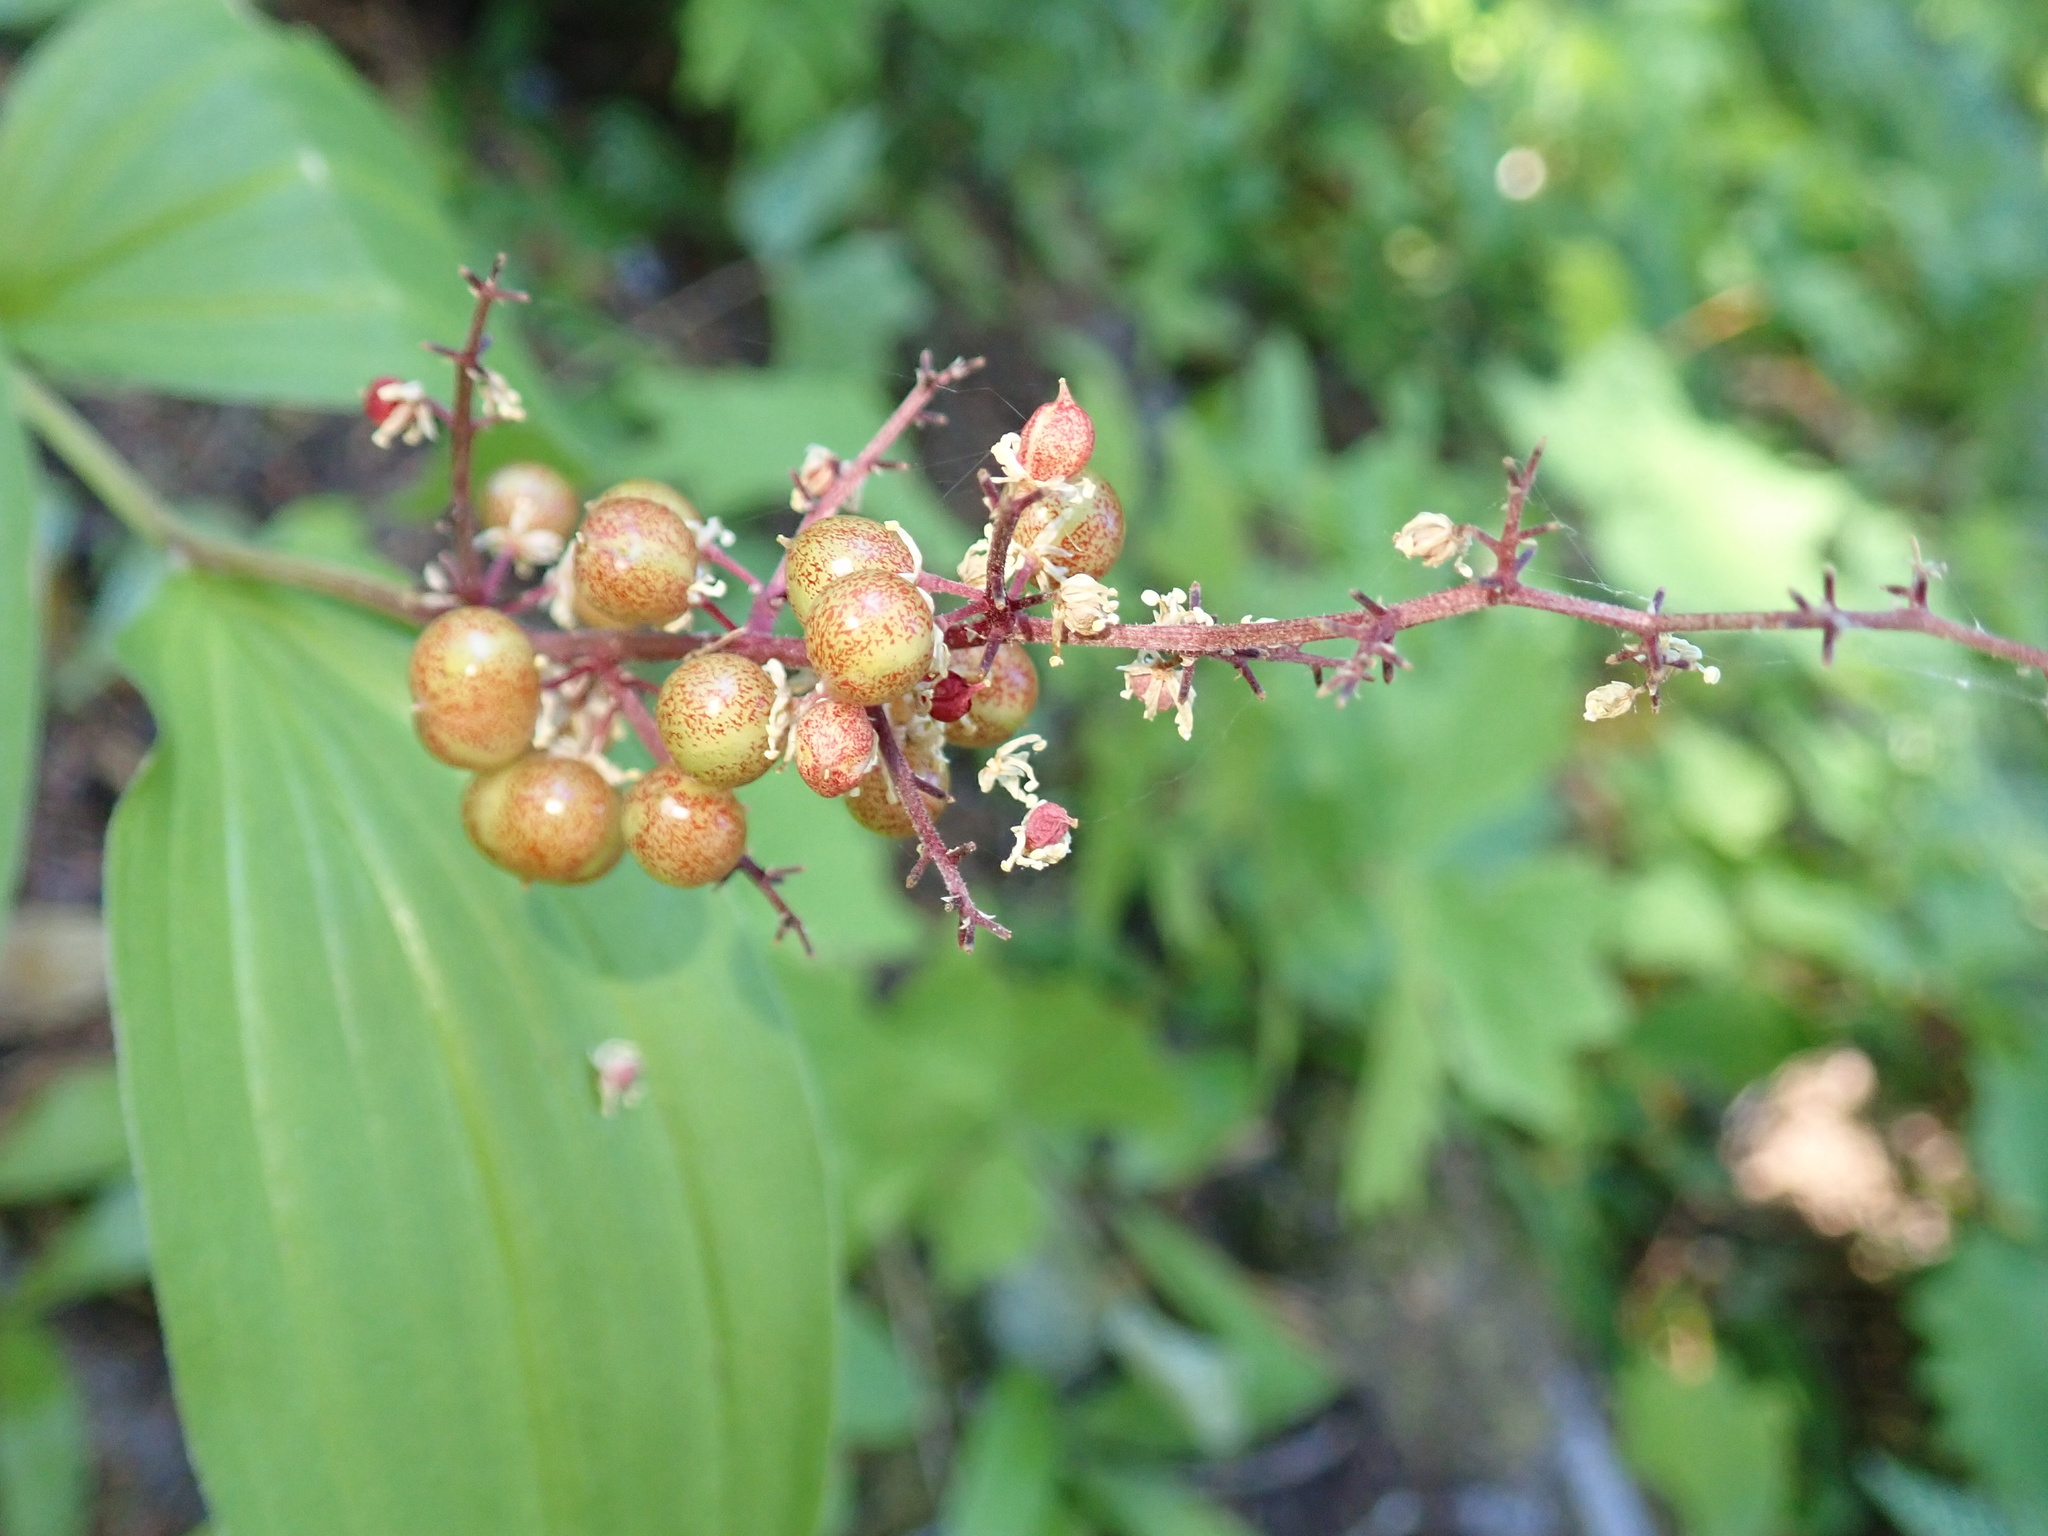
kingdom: Plantae
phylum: Tracheophyta
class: Liliopsida
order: Asparagales
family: Asparagaceae
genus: Maianthemum
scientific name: Maianthemum racemosum
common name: False spikenard
